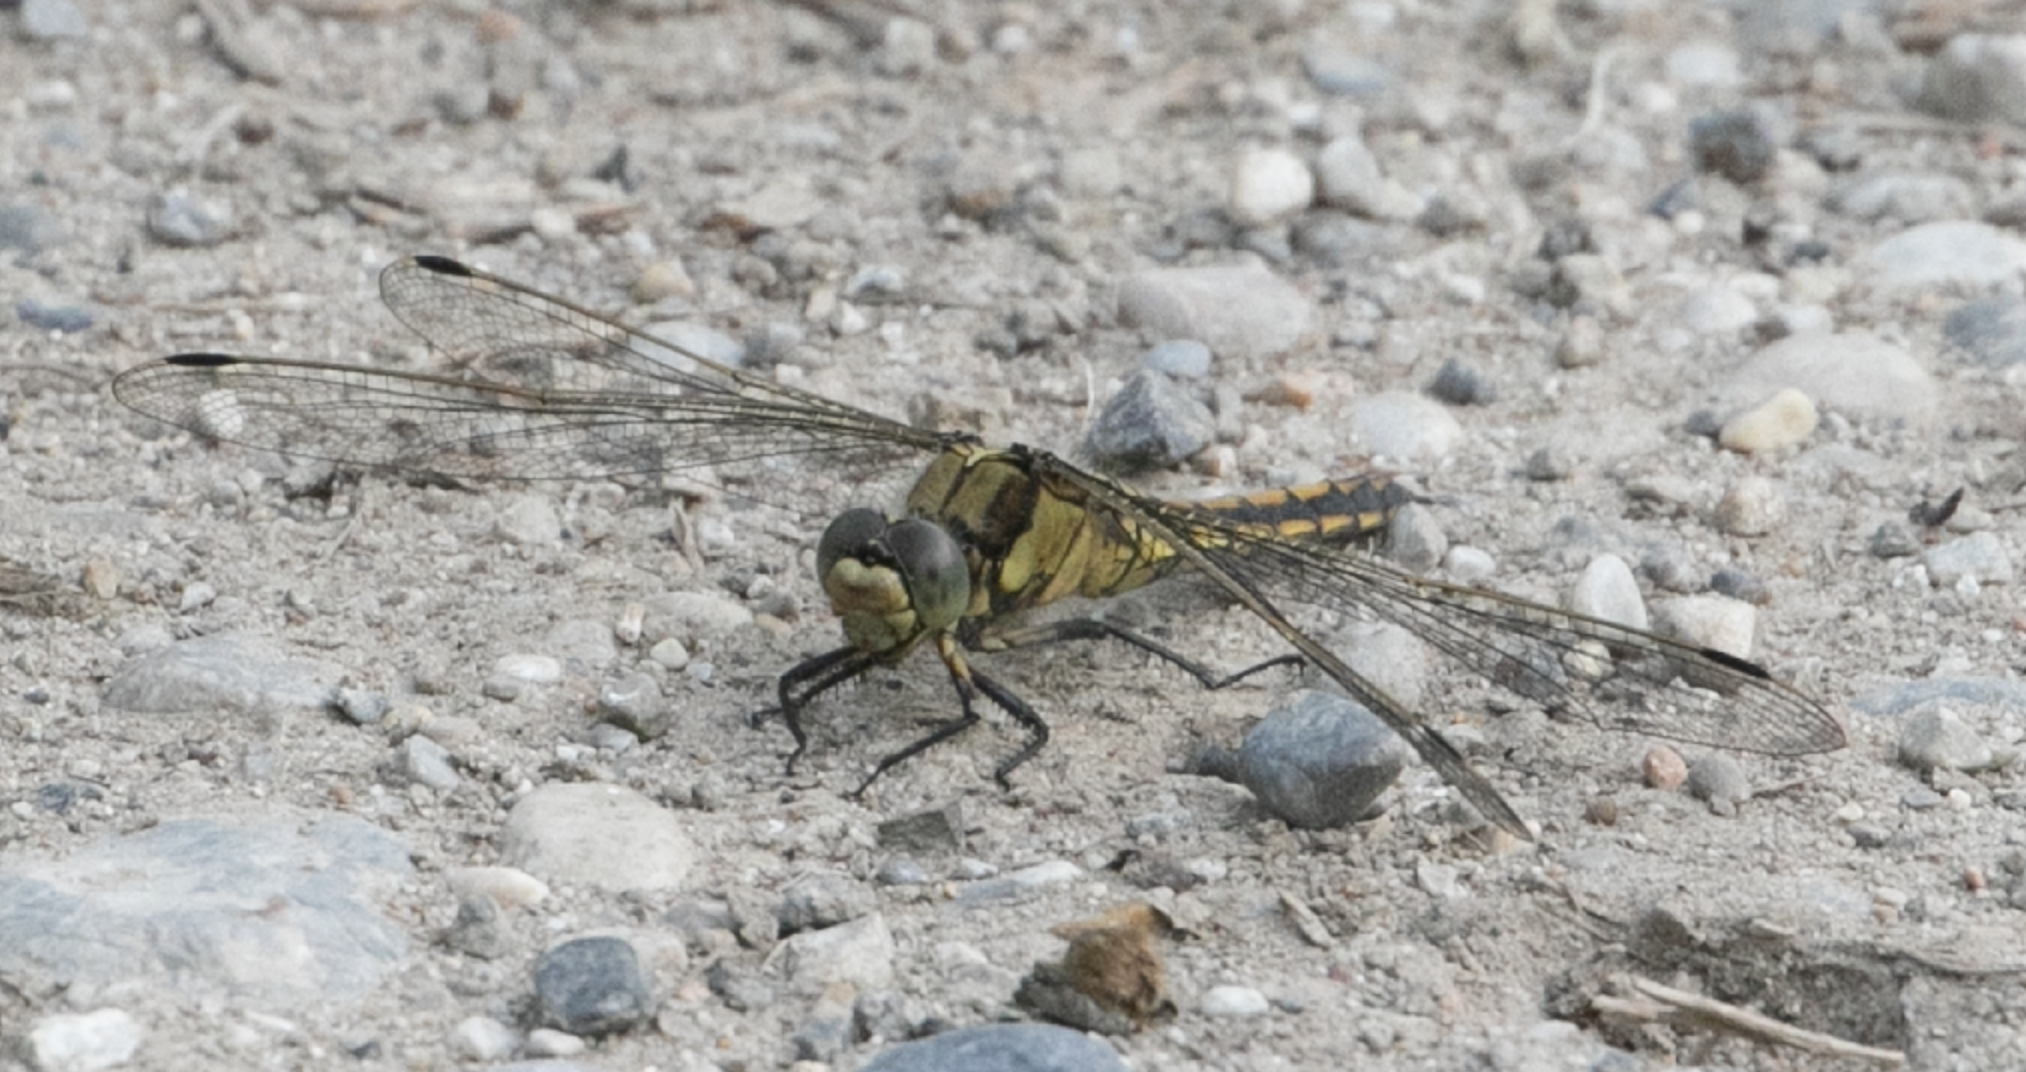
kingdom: Animalia
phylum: Arthropoda
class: Insecta
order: Odonata
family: Libellulidae
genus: Orthetrum
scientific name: Orthetrum cancellatum
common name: Black-tailed skimmer
